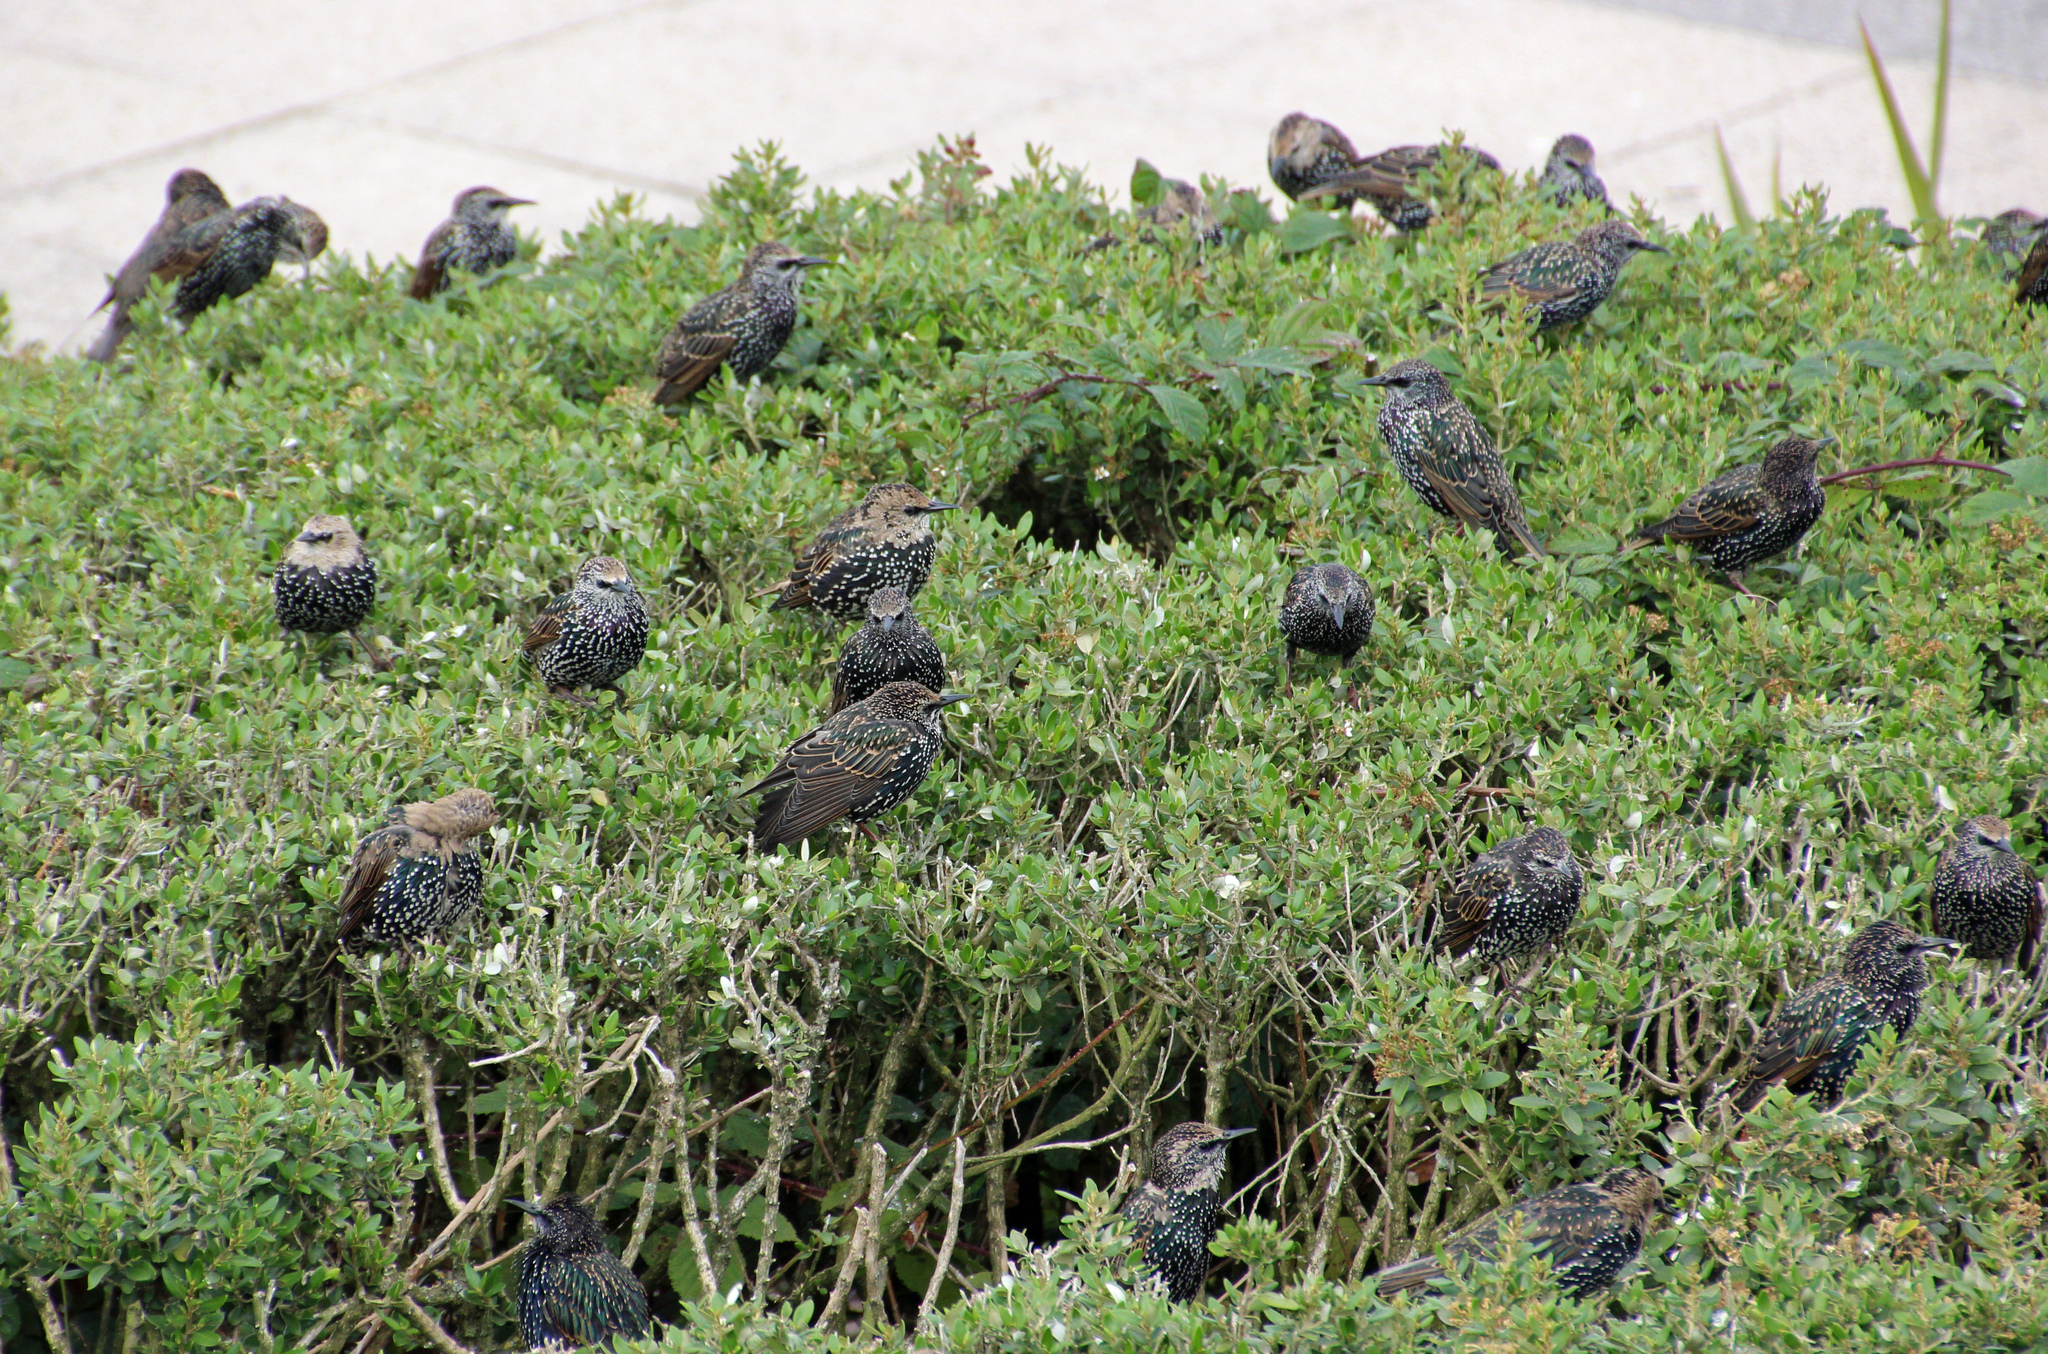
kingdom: Animalia
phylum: Chordata
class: Aves
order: Passeriformes
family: Sturnidae
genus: Sturnus
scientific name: Sturnus vulgaris
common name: Common starling
